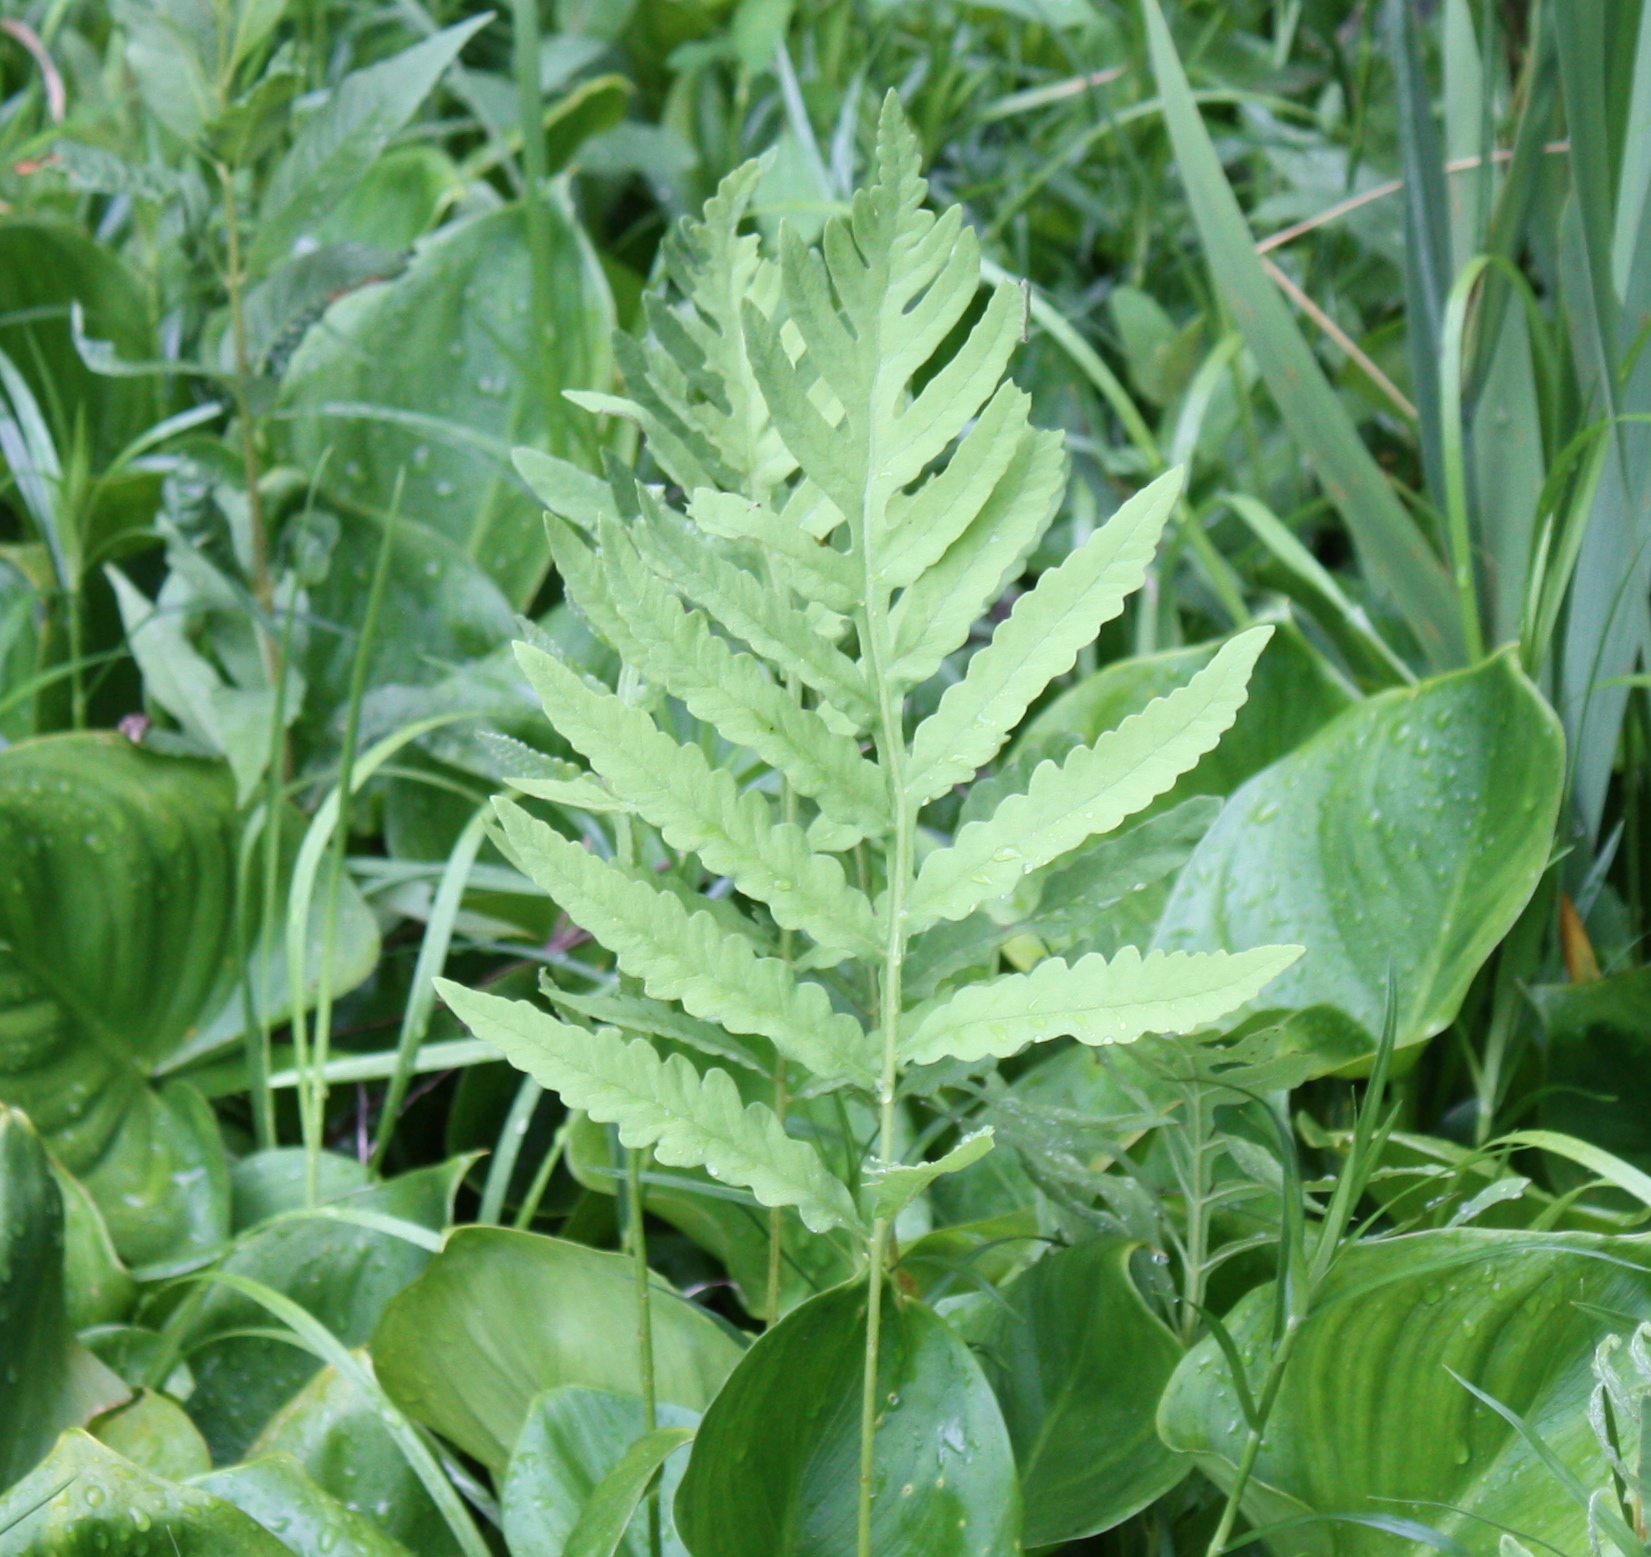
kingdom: Plantae
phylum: Tracheophyta
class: Polypodiopsida
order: Polypodiales
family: Onocleaceae
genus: Onoclea
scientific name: Onoclea sensibilis
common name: Sensitive fern
